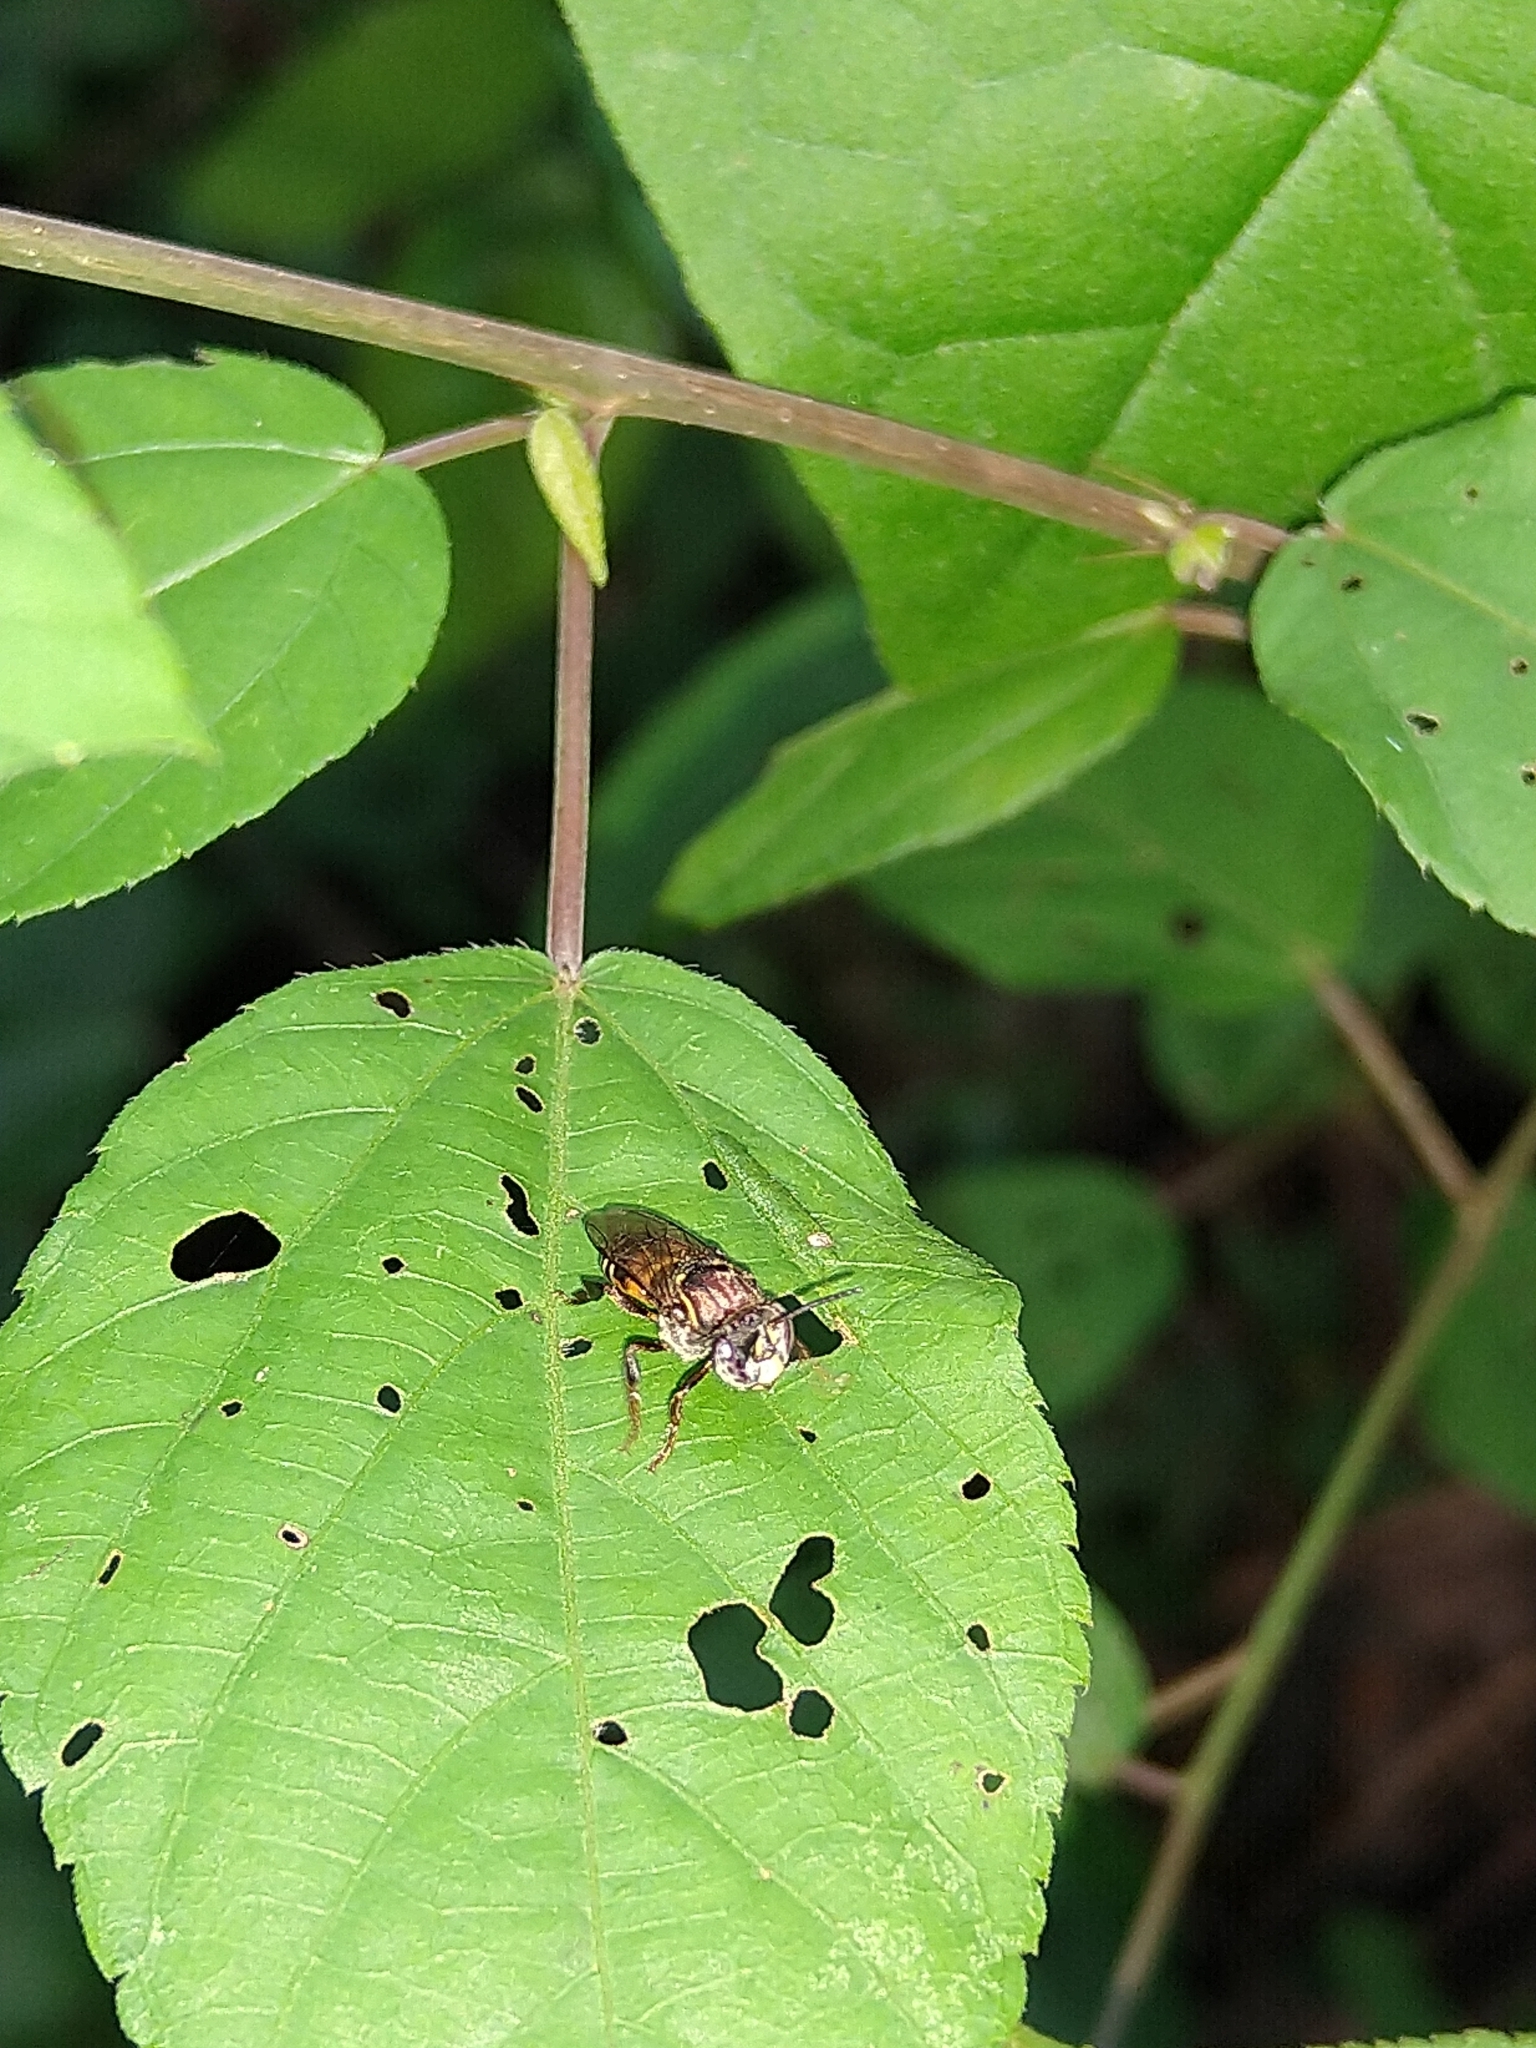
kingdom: Animalia
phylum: Arthropoda
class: Insecta
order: Hymenoptera
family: Apidae
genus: Cephalotrigona
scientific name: Cephalotrigona zexmeniae
